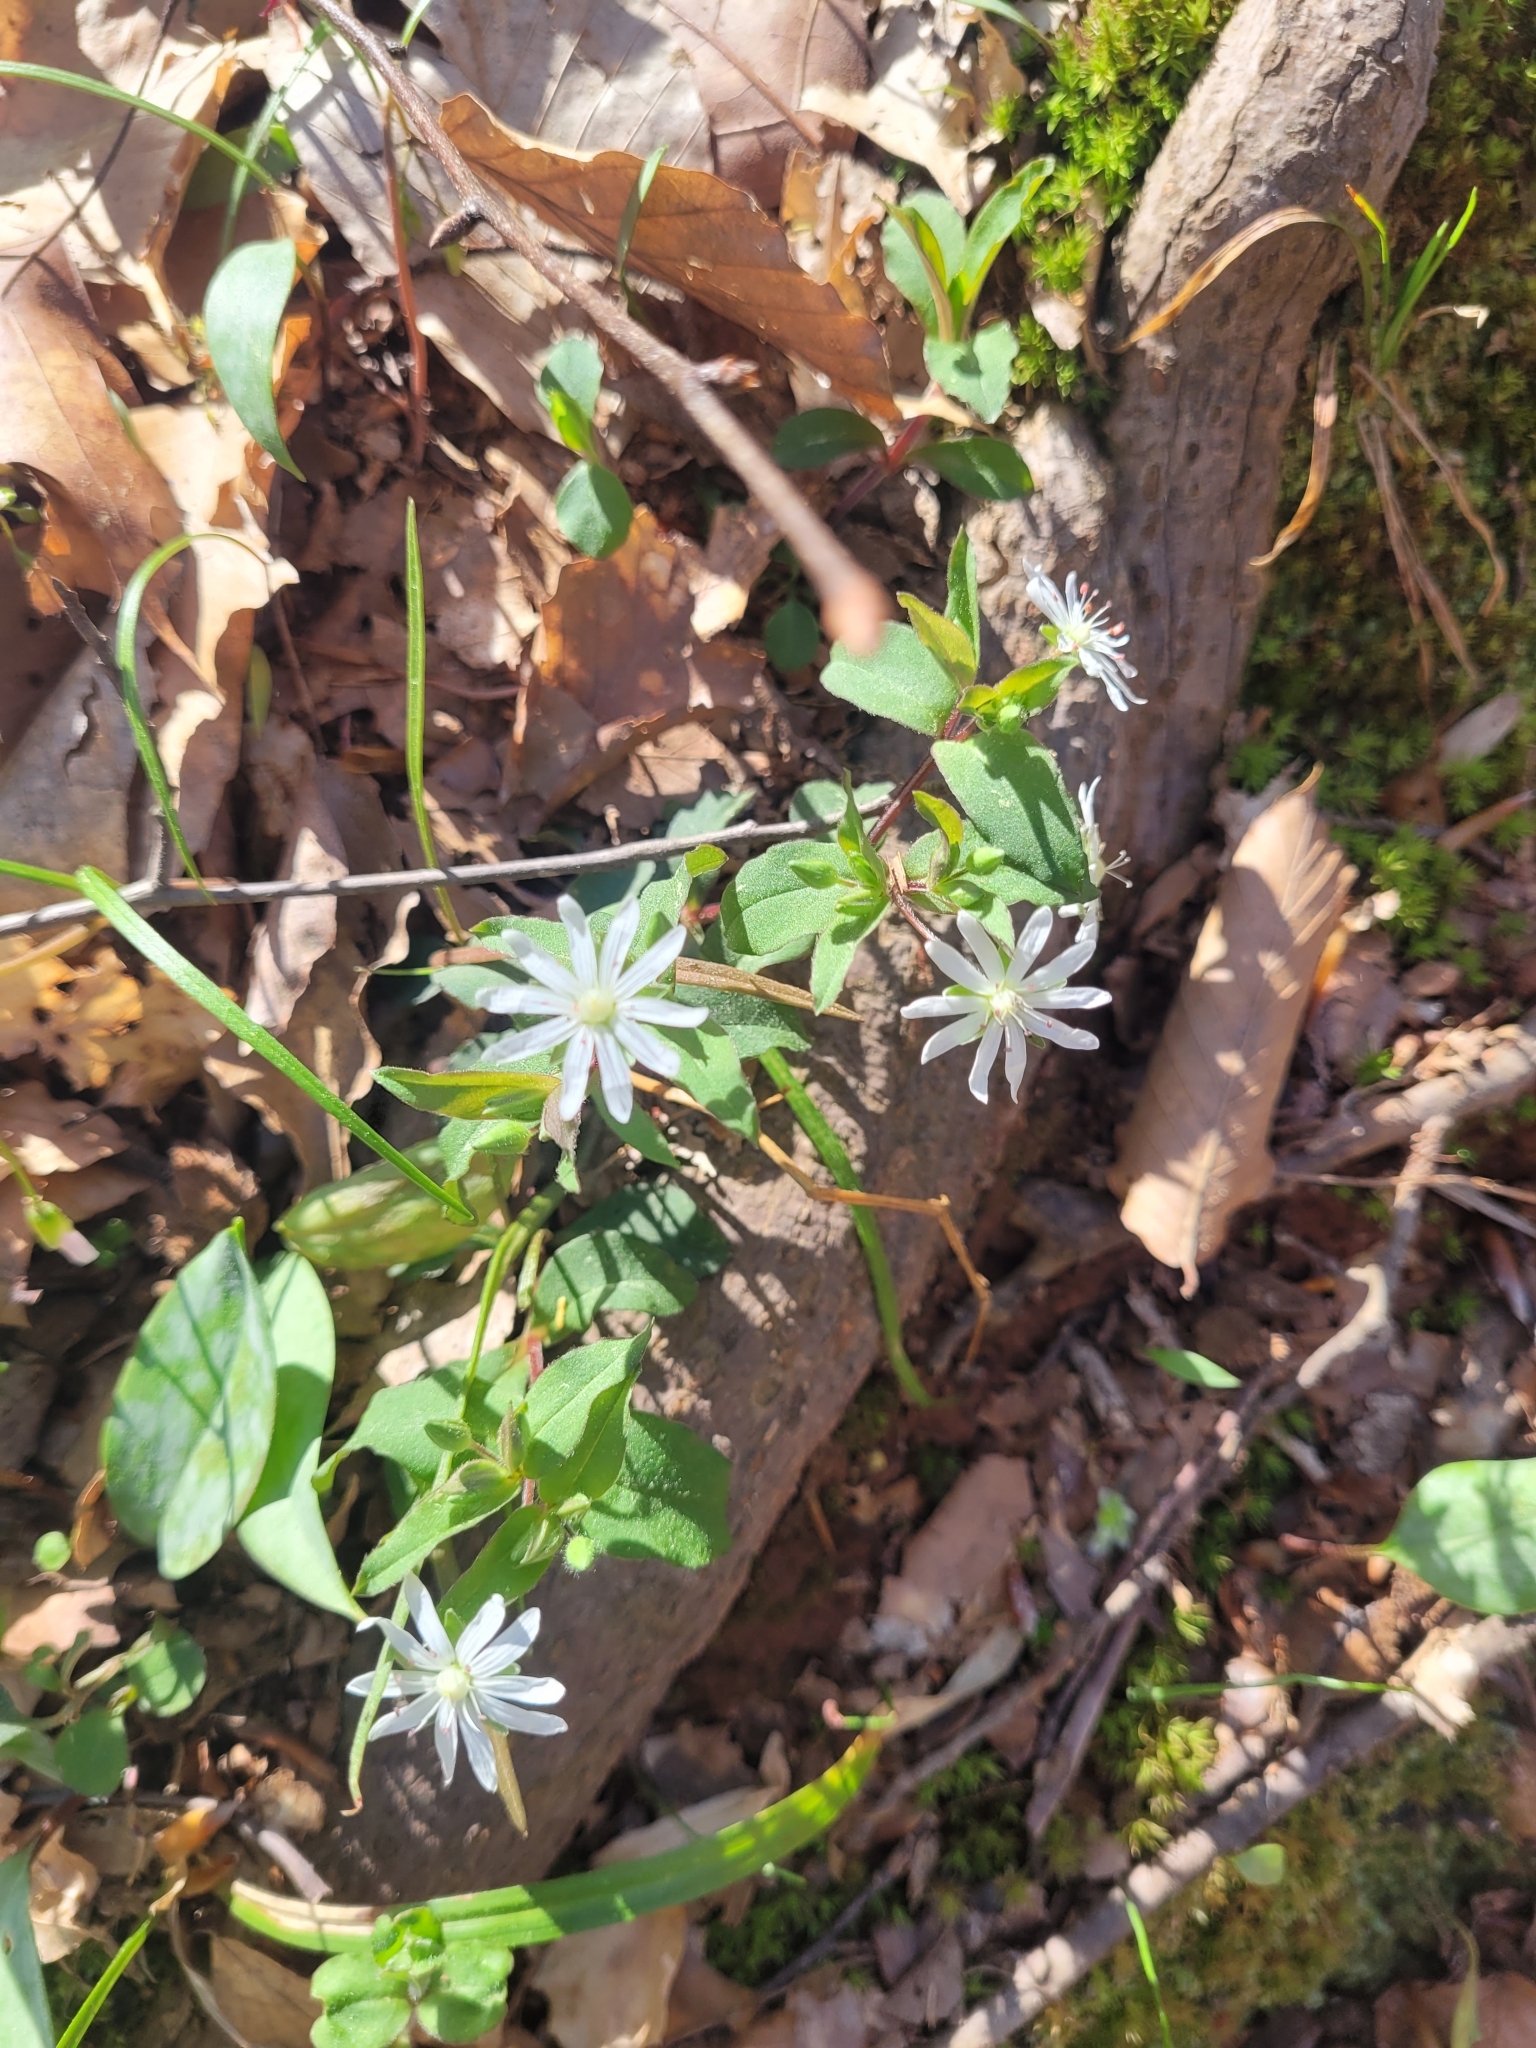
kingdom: Plantae
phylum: Tracheophyta
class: Magnoliopsida
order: Caryophyllales
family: Caryophyllaceae
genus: Stellaria
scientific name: Stellaria pubera
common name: Star chickweed
